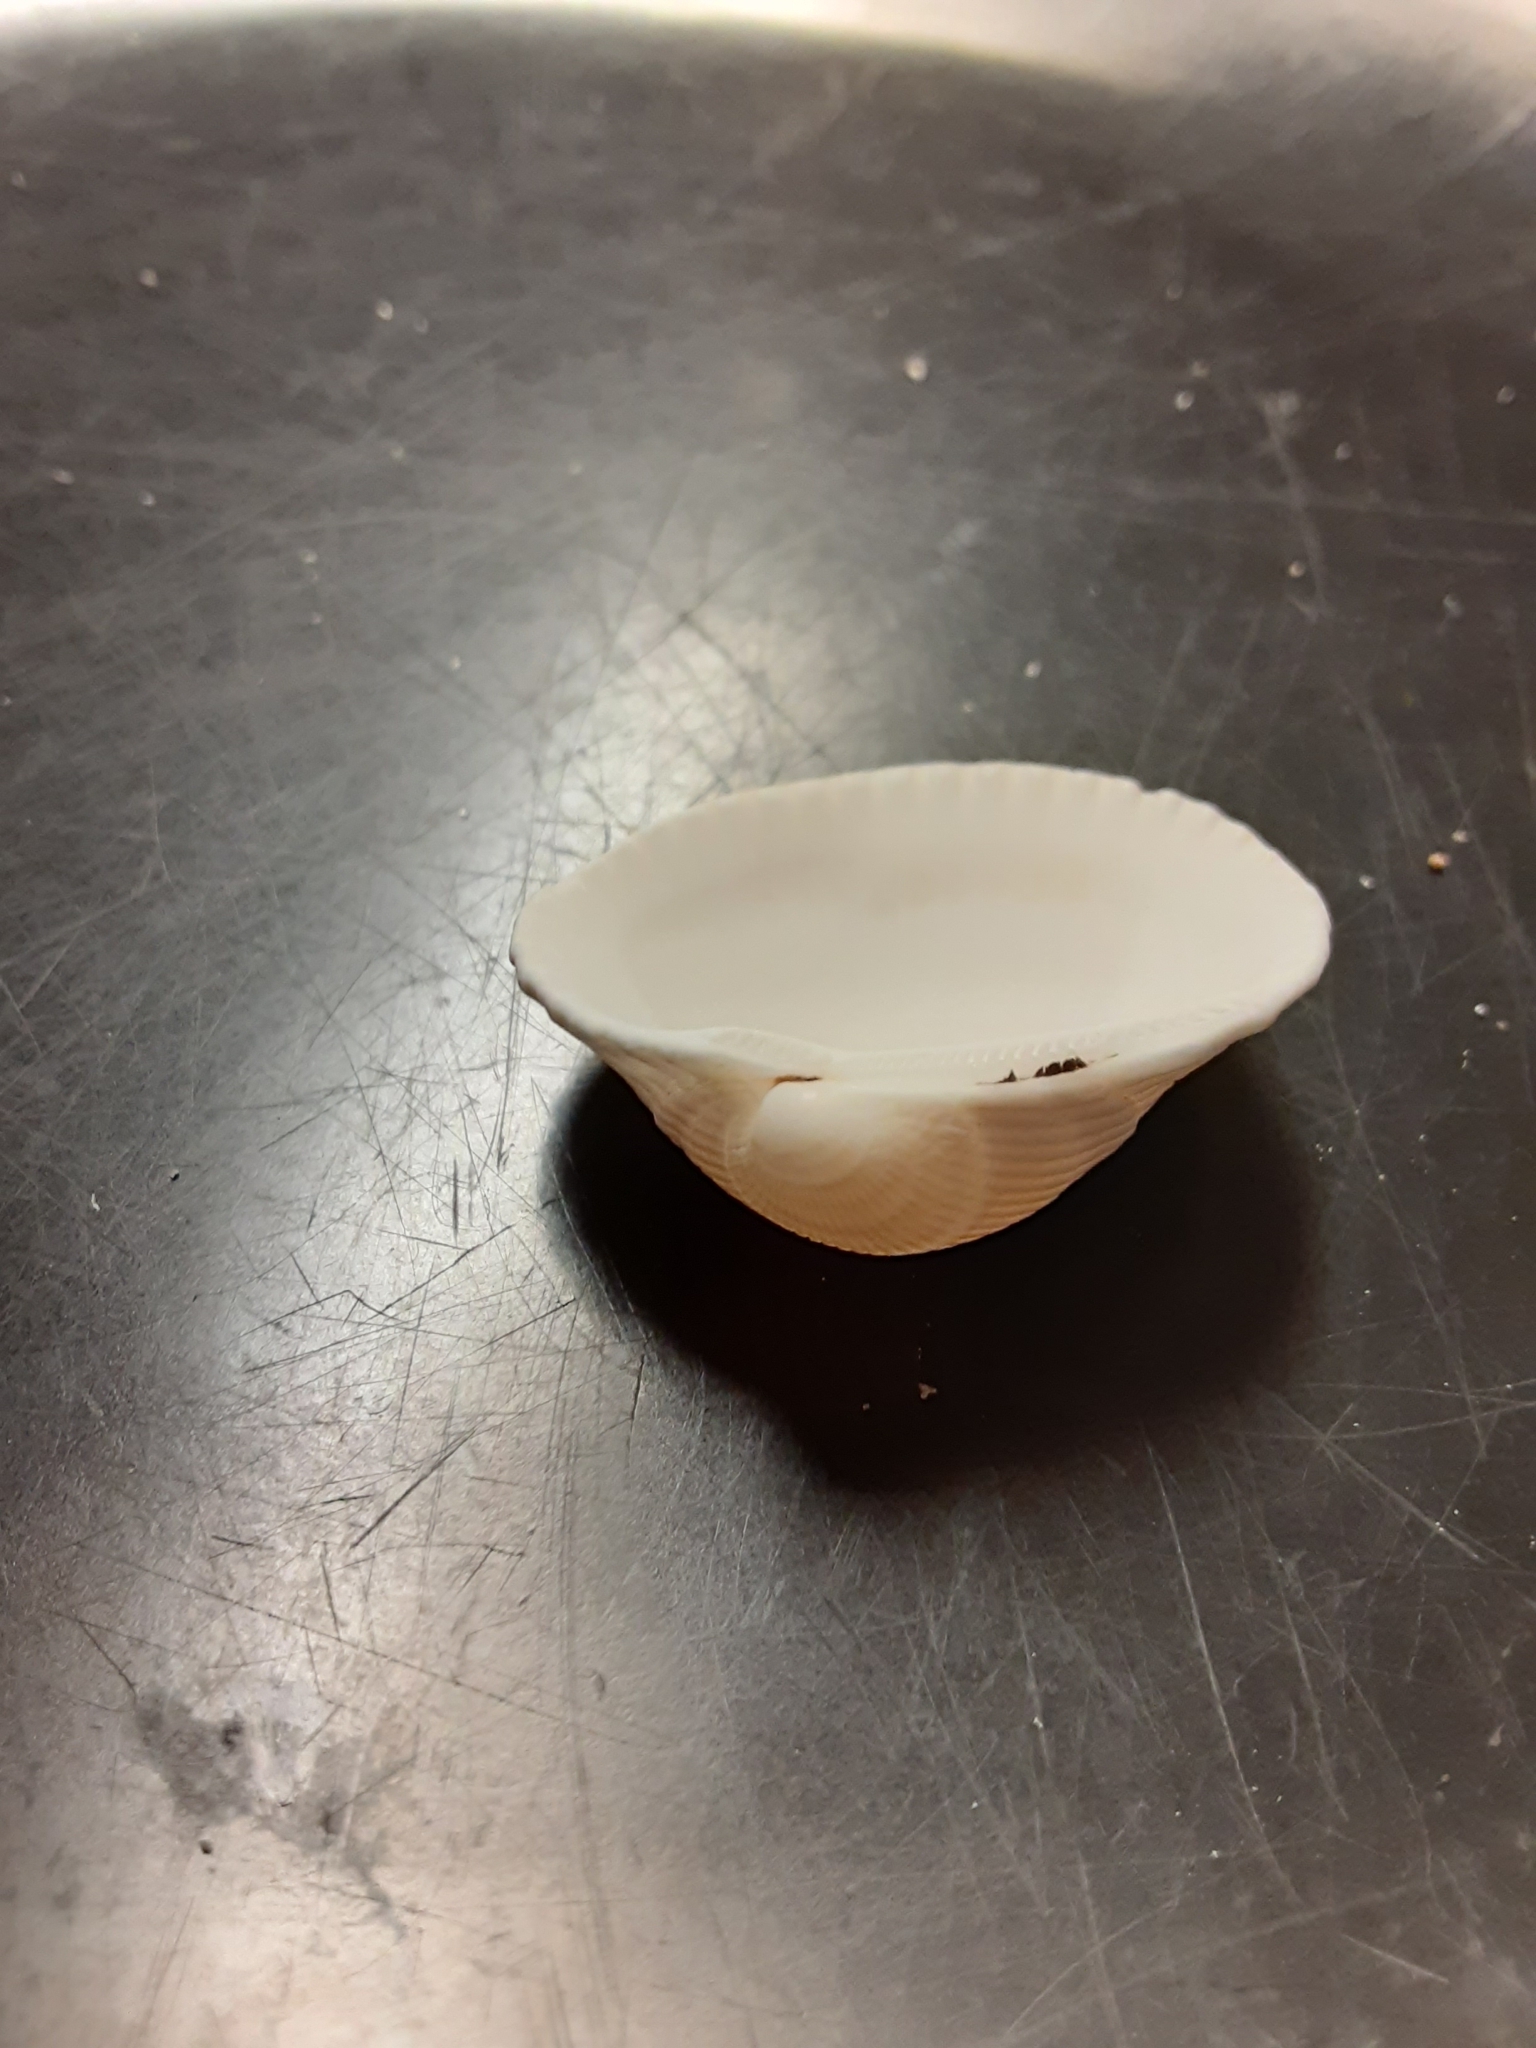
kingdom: Animalia
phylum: Mollusca
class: Bivalvia
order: Arcida
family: Arcidae
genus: Lunarca
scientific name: Lunarca ovalis
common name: Blood ark
